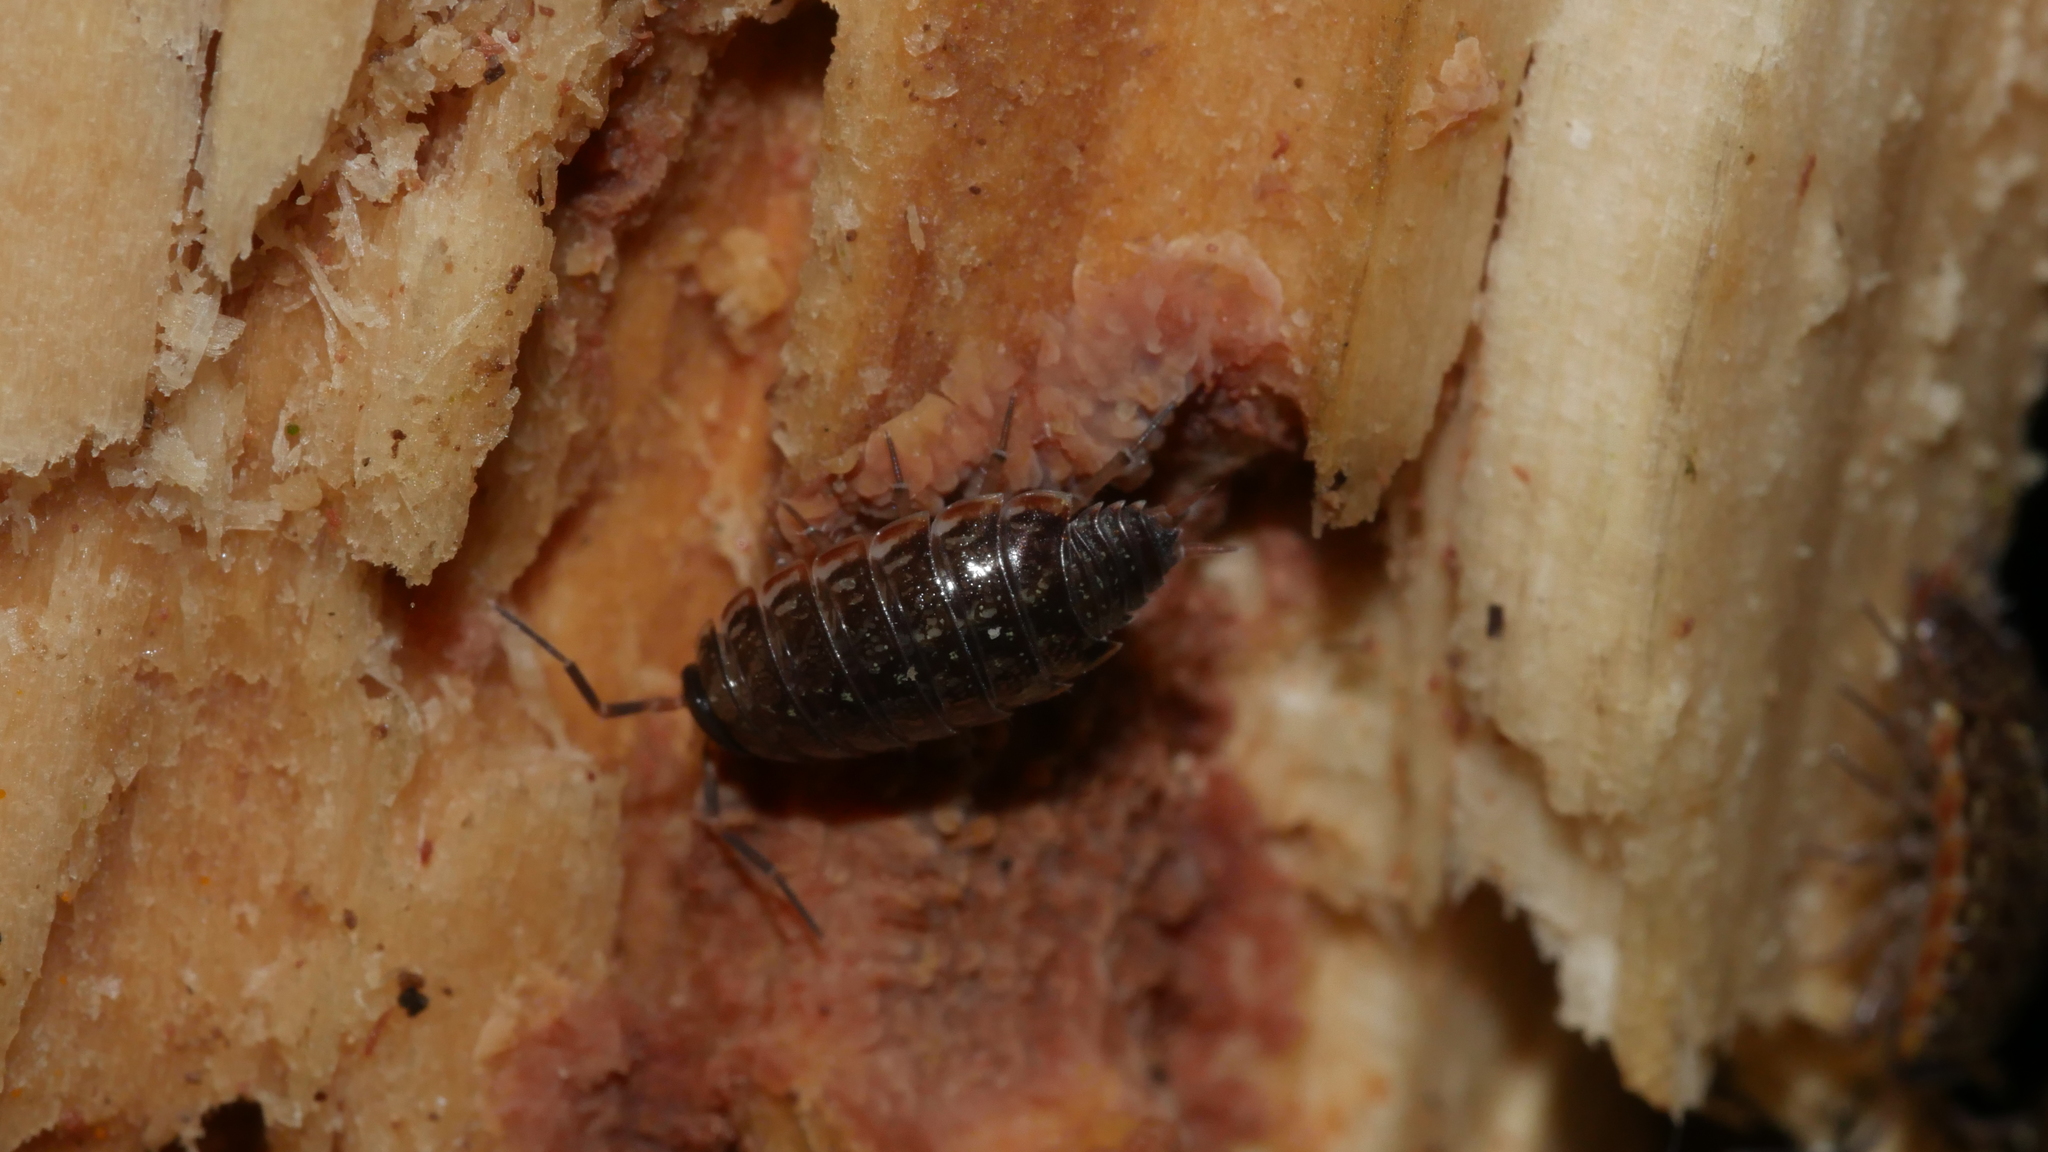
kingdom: Animalia
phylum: Arthropoda
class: Malacostraca
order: Isopoda
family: Philosciidae
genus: Philoscia
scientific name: Philoscia muscorum
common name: Common striped woodlouse
